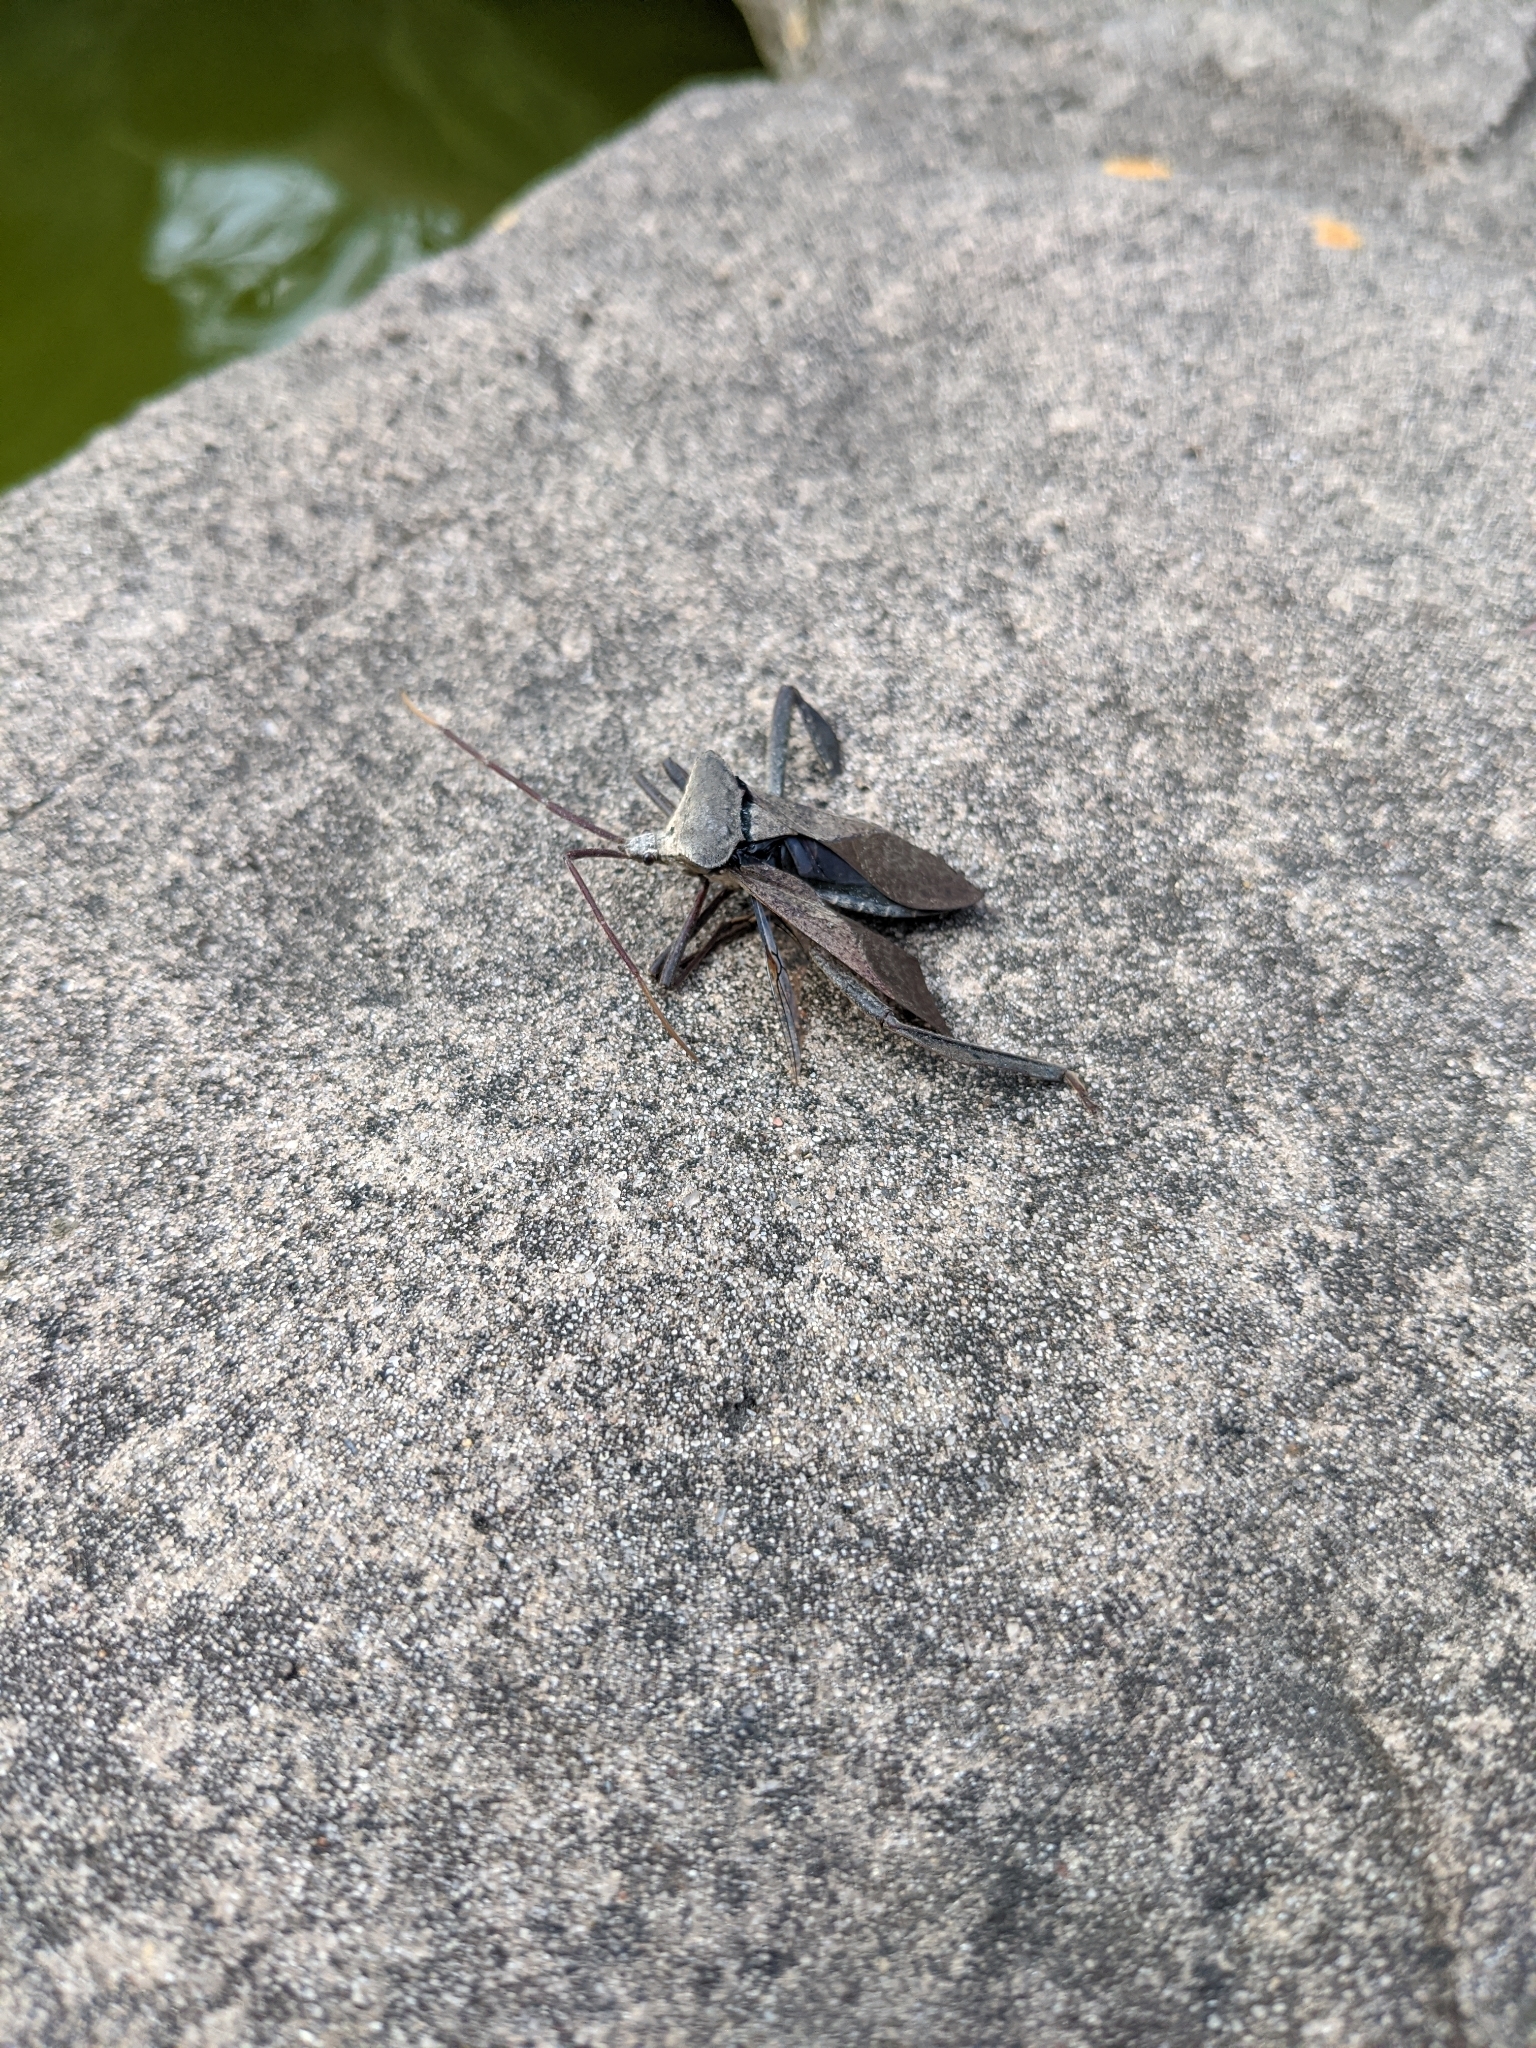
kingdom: Animalia
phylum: Arthropoda
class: Insecta
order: Hemiptera
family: Coreidae
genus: Acanthocephala
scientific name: Acanthocephala declivis
